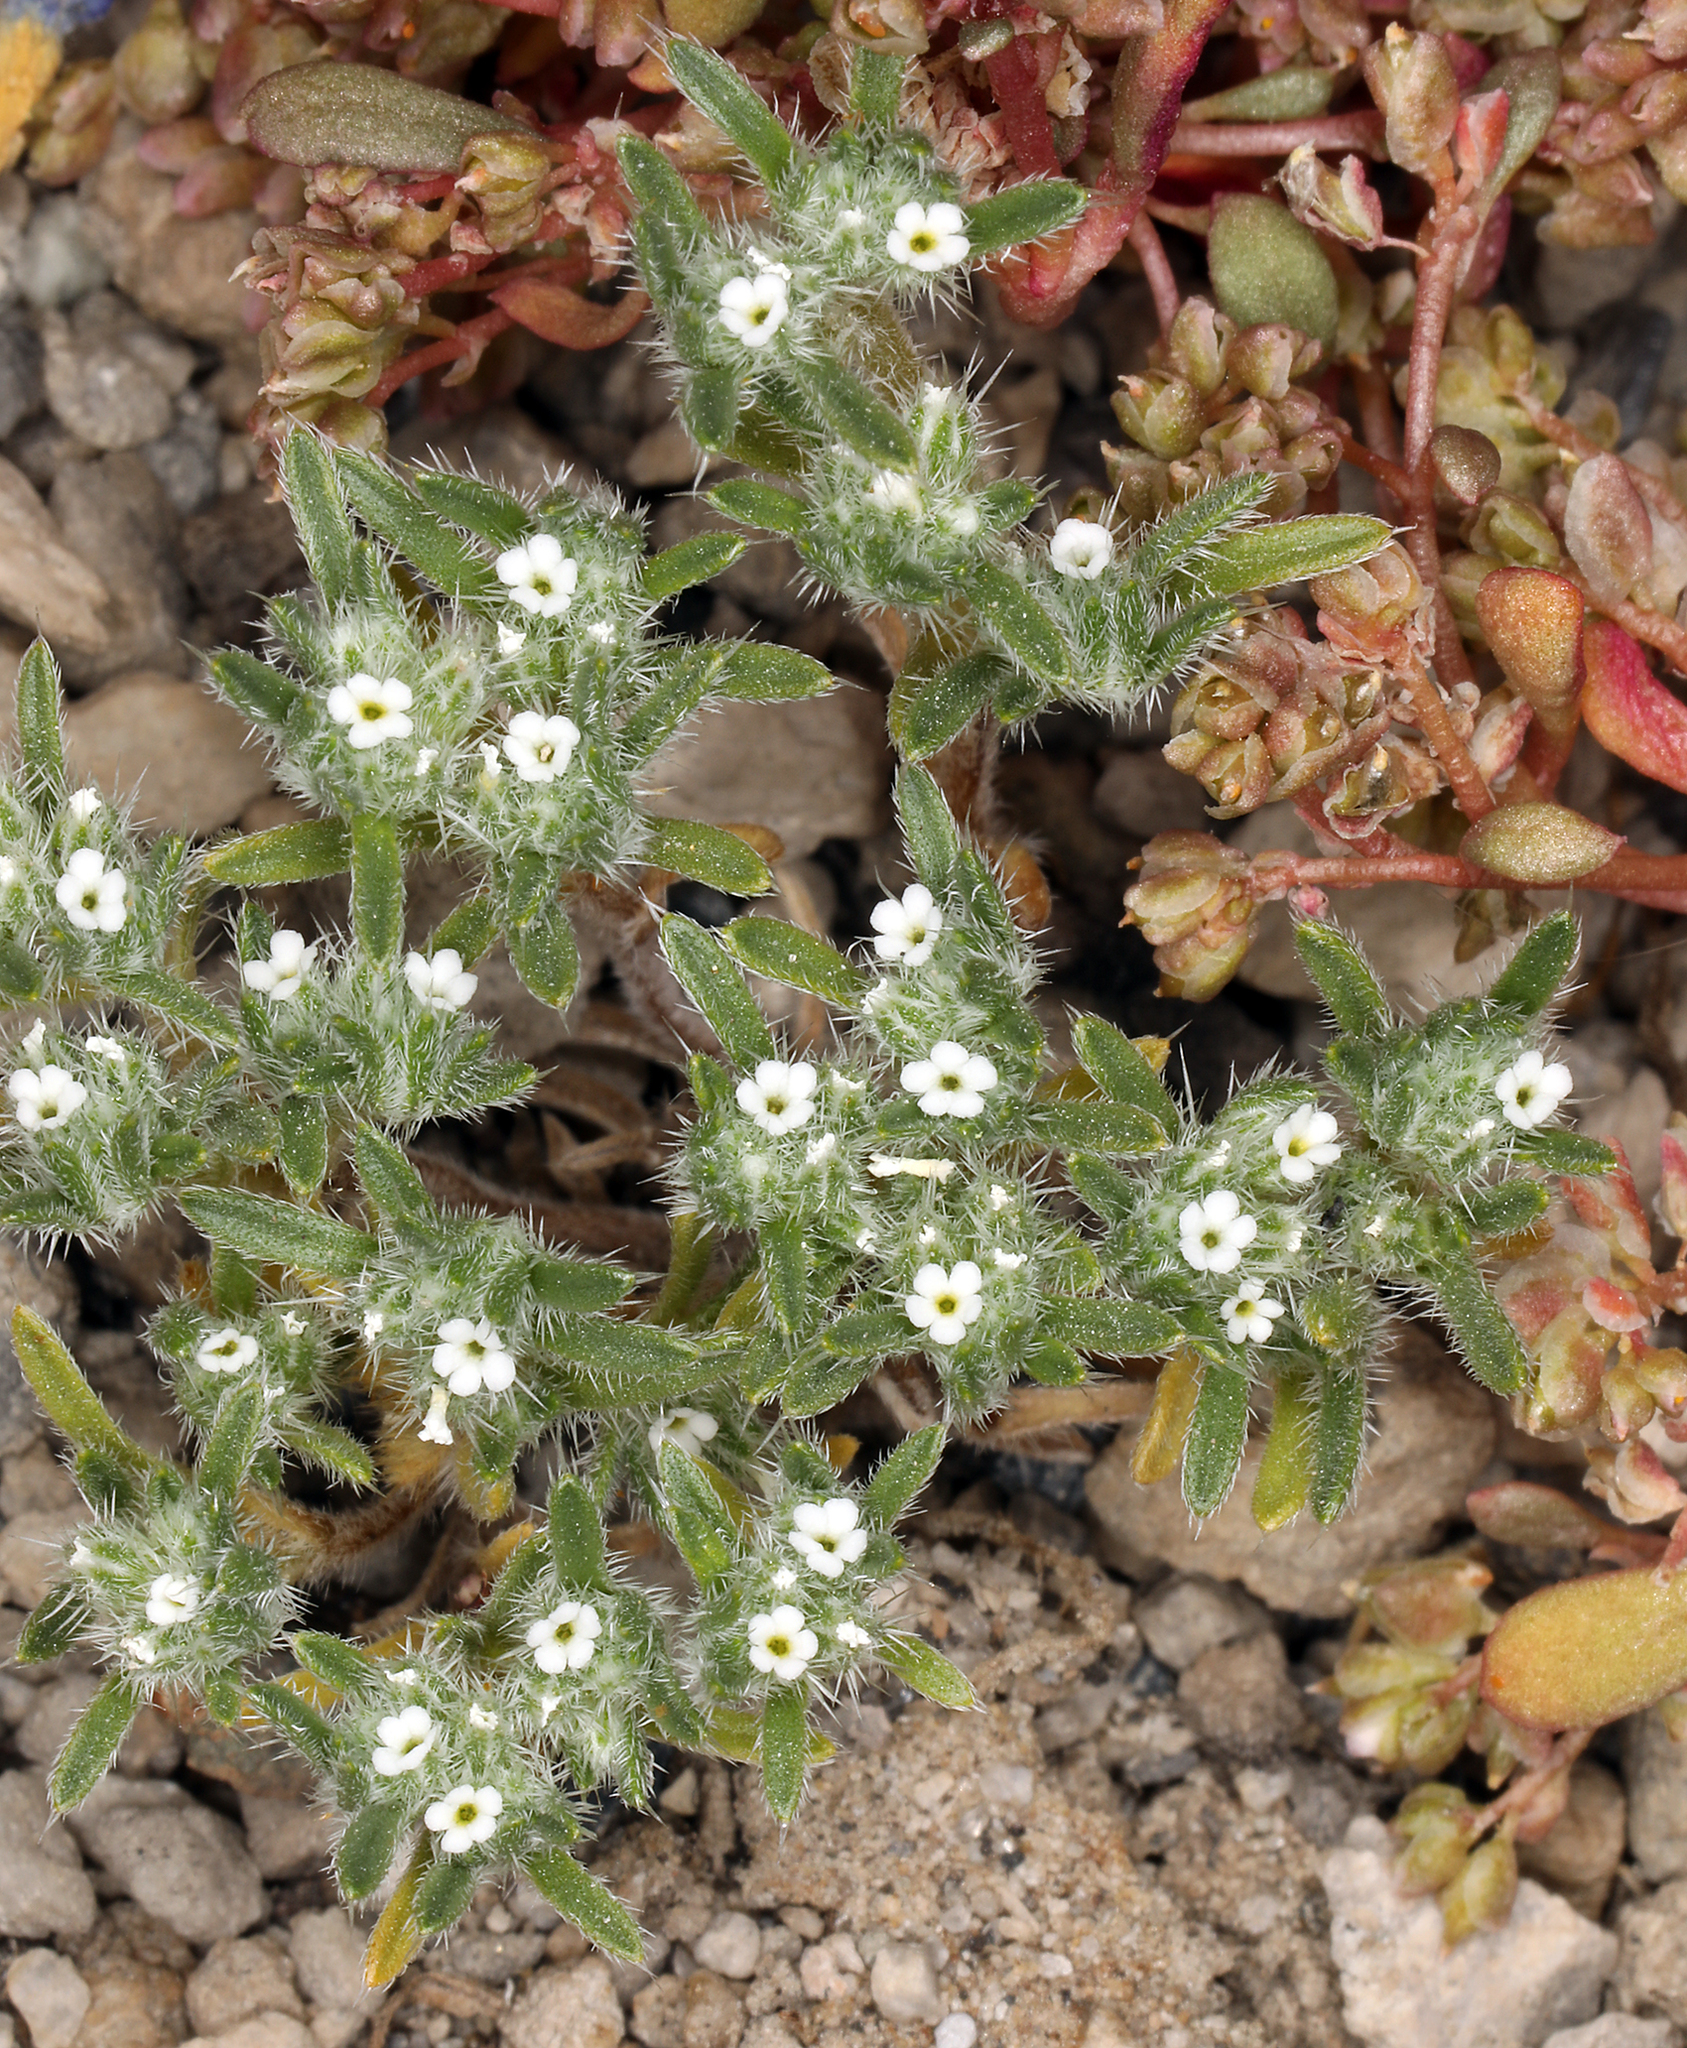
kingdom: Plantae
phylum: Tracheophyta
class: Magnoliopsida
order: Boraginales
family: Boraginaceae
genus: Greeneocharis
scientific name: Greeneocharis circumscissa
